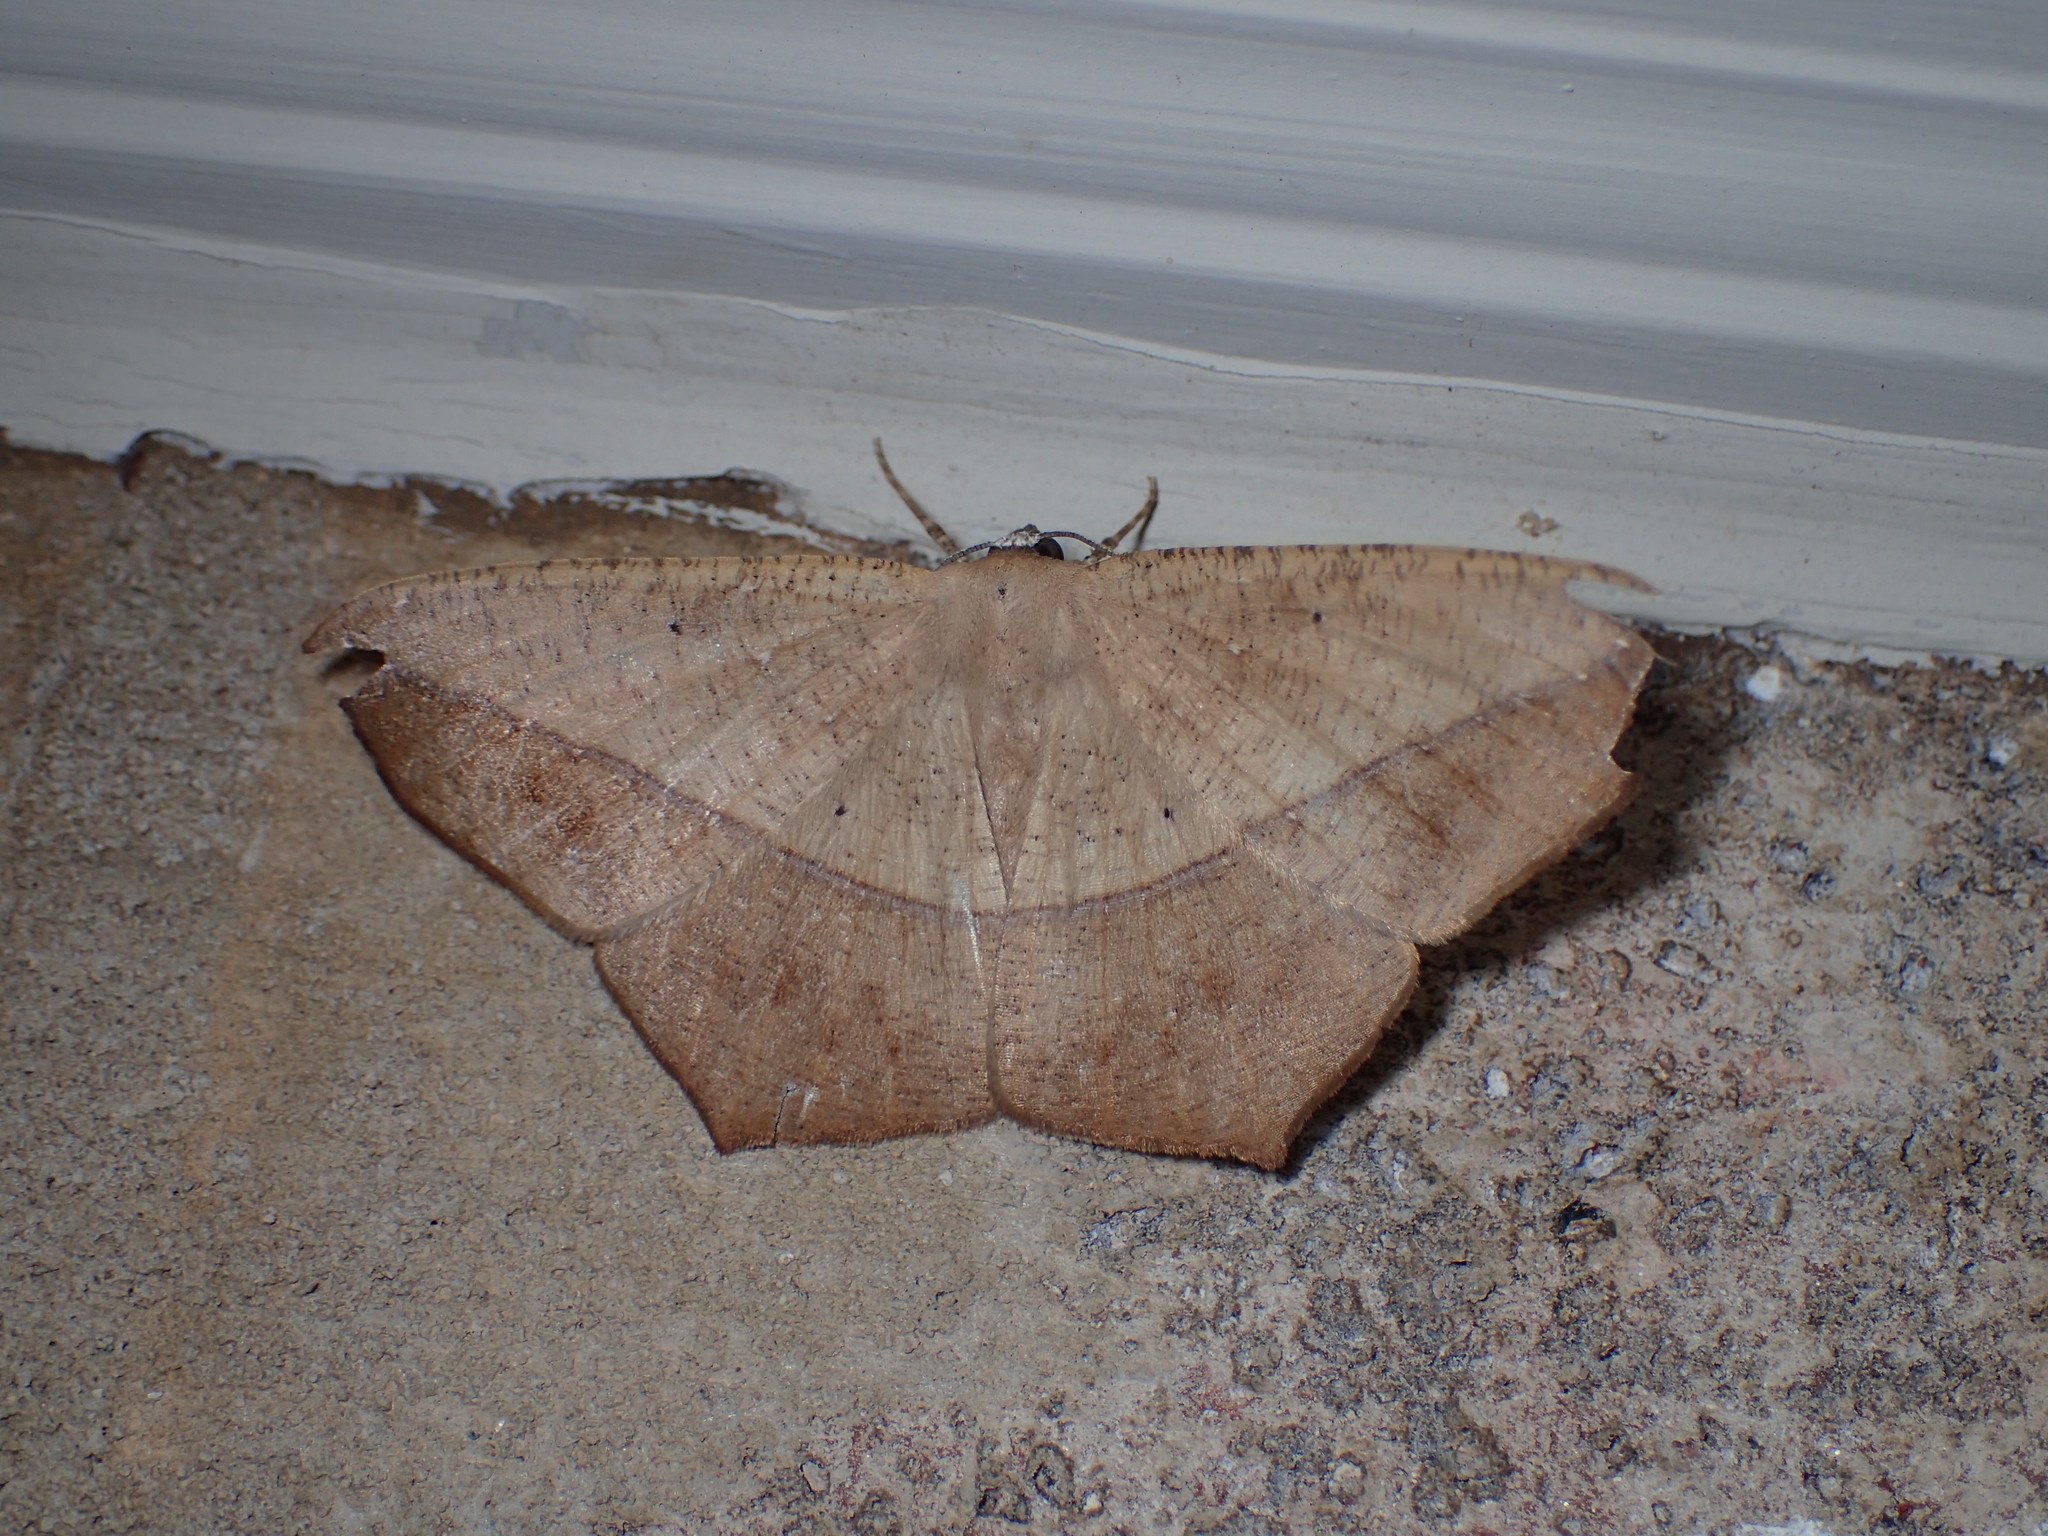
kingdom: Animalia
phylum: Arthropoda
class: Insecta
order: Lepidoptera
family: Geometridae
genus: Prochoerodes
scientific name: Prochoerodes lineola
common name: Large maple spanworm
